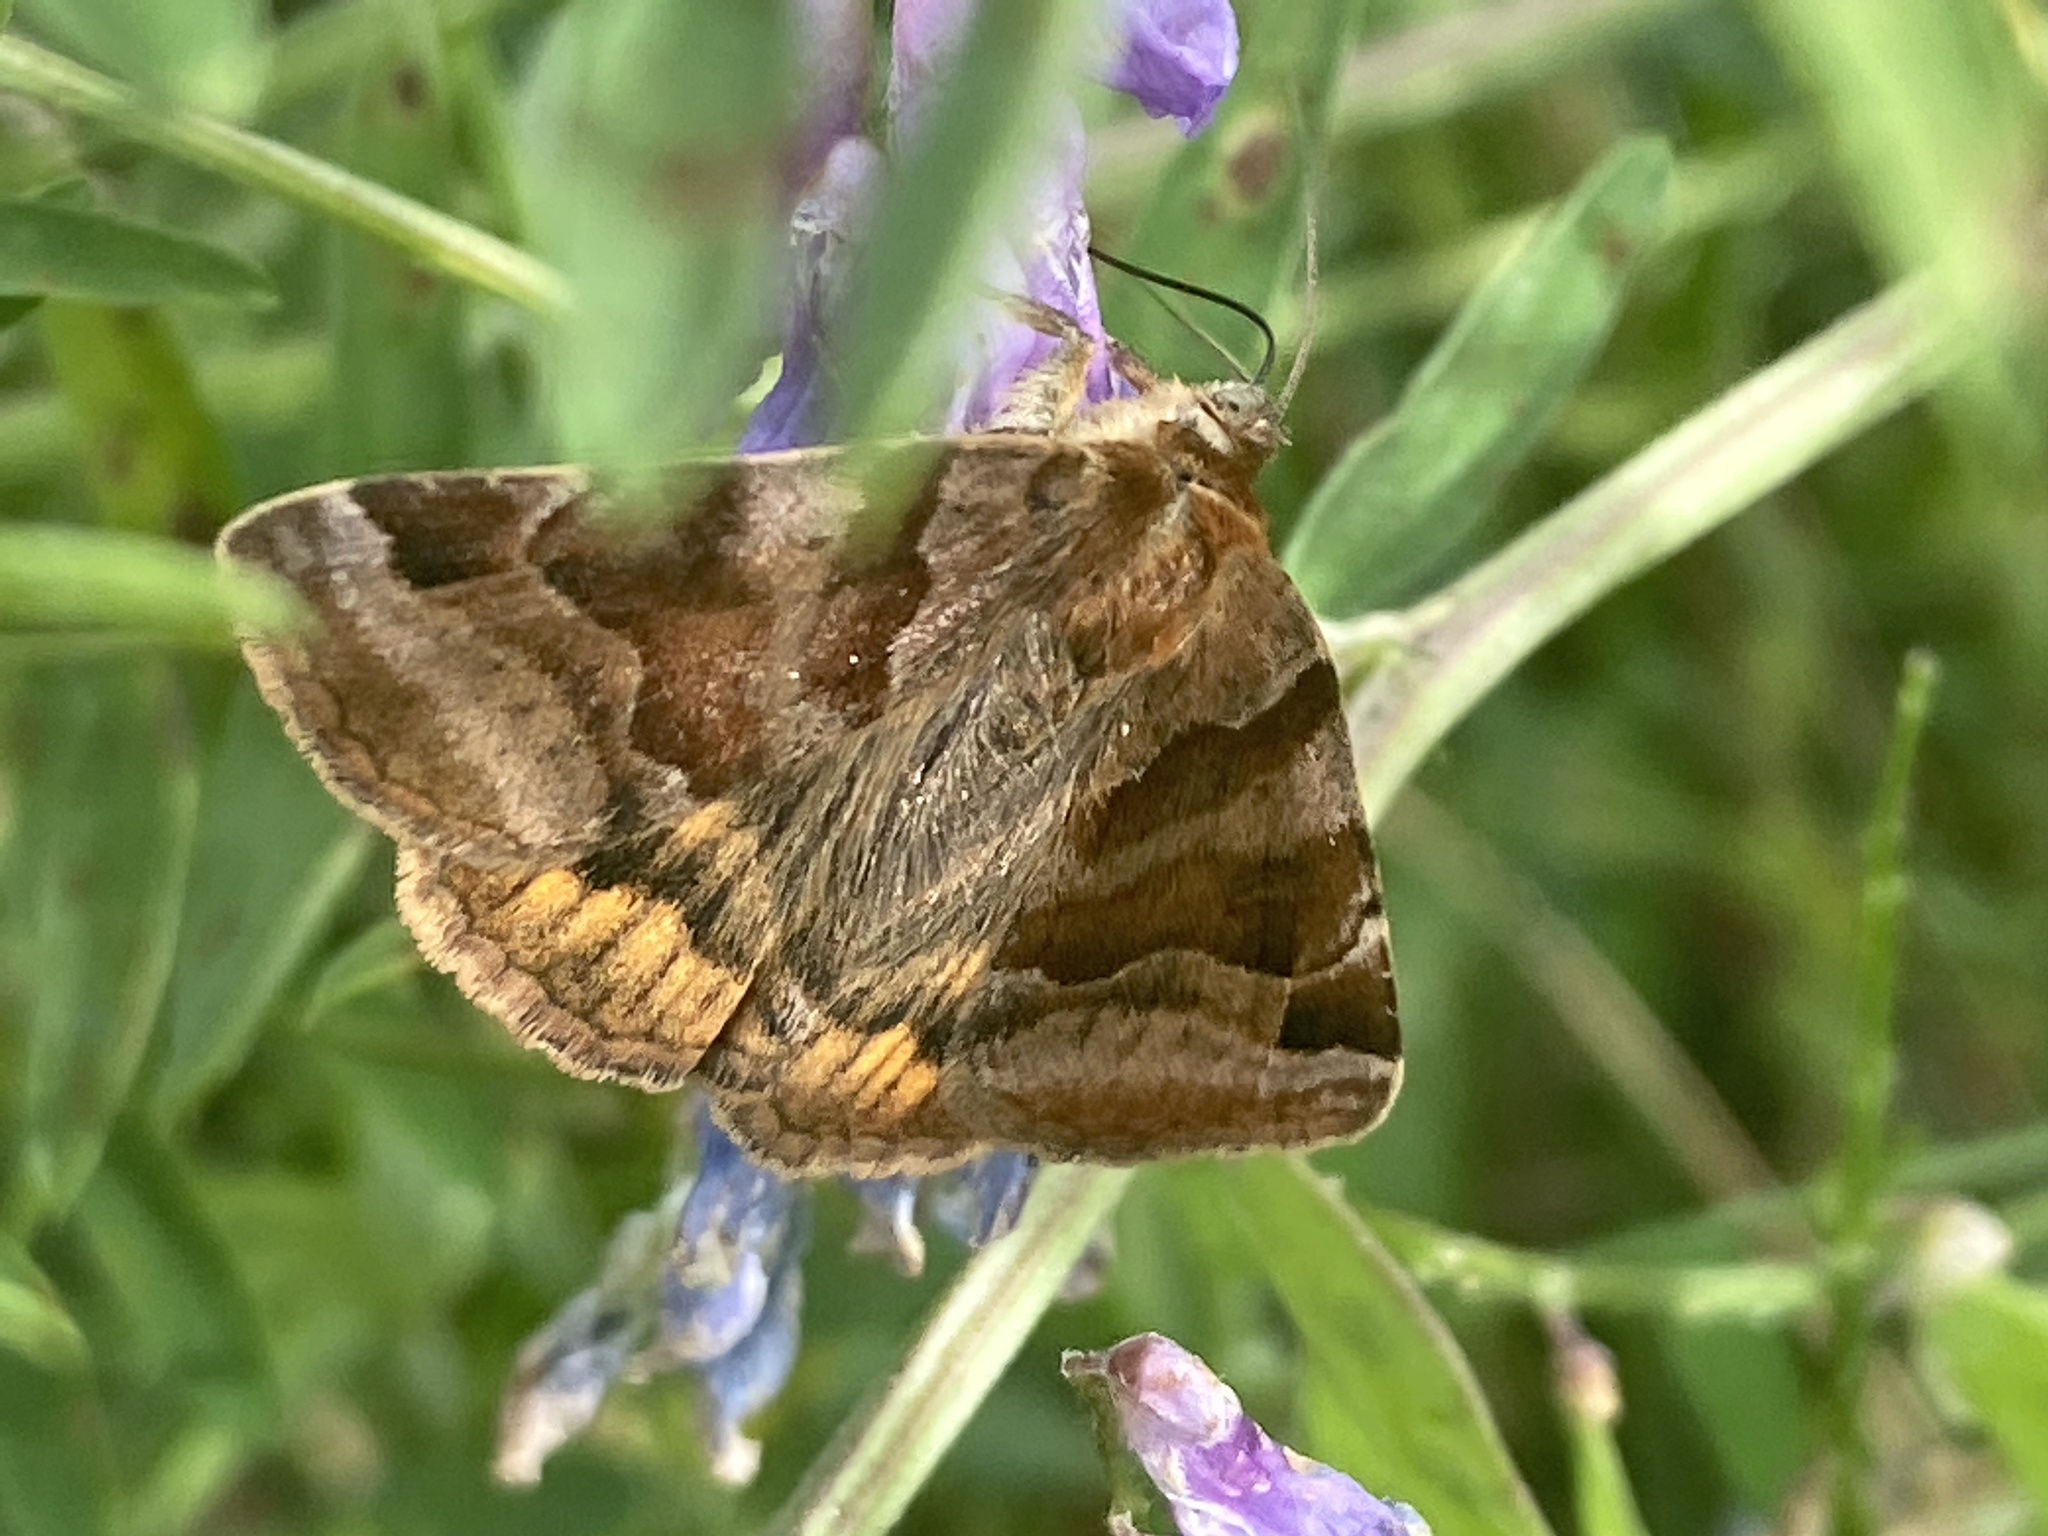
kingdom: Animalia
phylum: Arthropoda
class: Insecta
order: Lepidoptera
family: Erebidae
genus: Euclidia
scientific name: Euclidia glyphica
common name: Burnet companion
